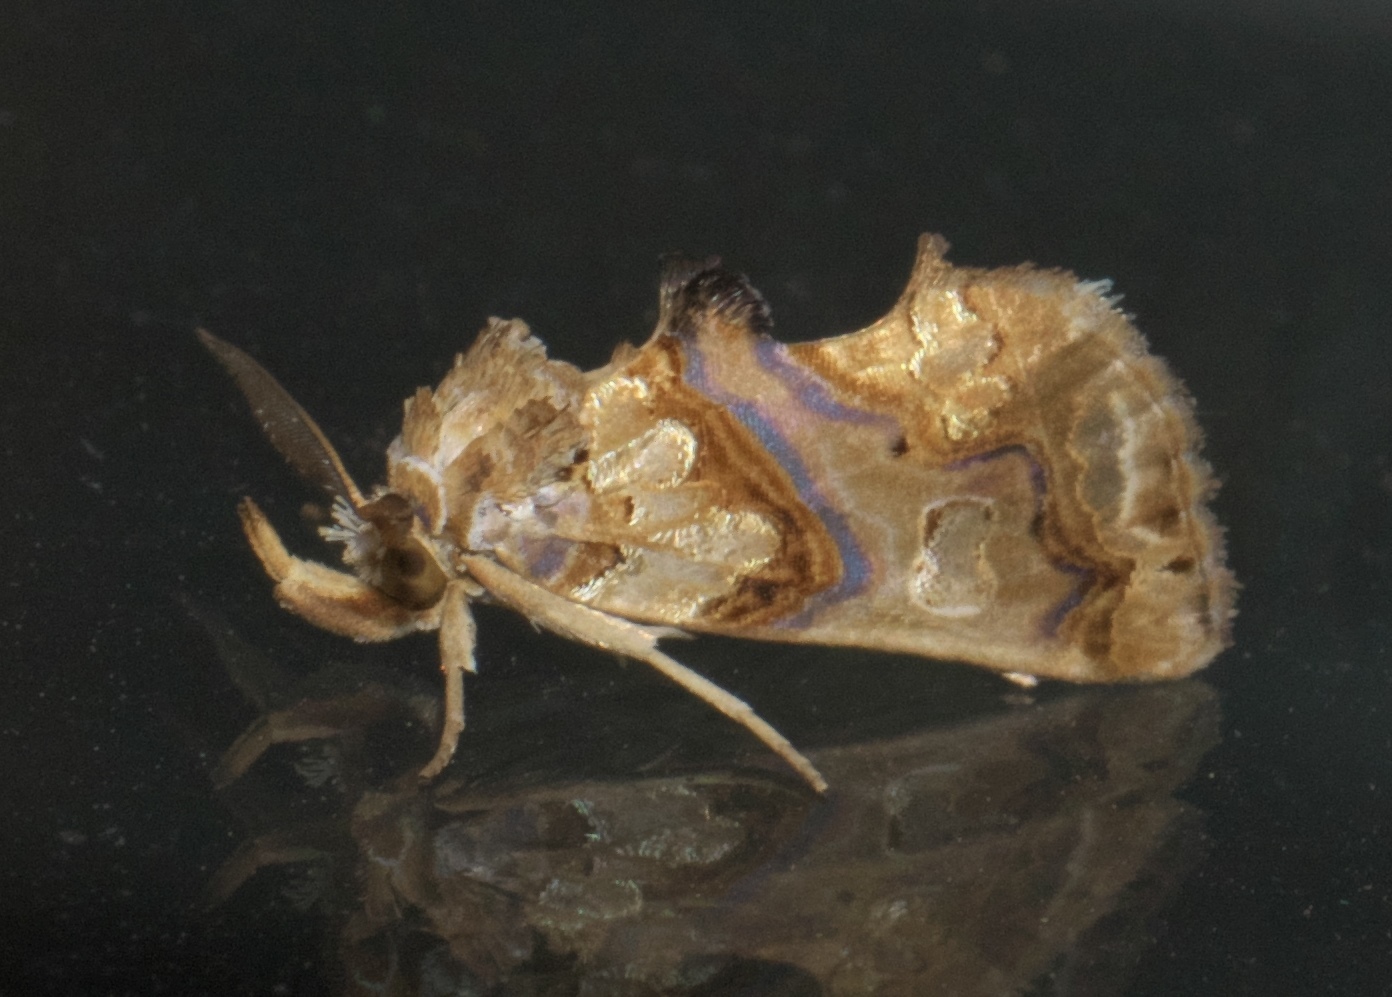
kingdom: Animalia
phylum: Arthropoda
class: Insecta
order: Lepidoptera
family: Erebidae
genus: Plusiodonta
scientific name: Plusiodonta compressipalpis
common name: Moonseed moth
